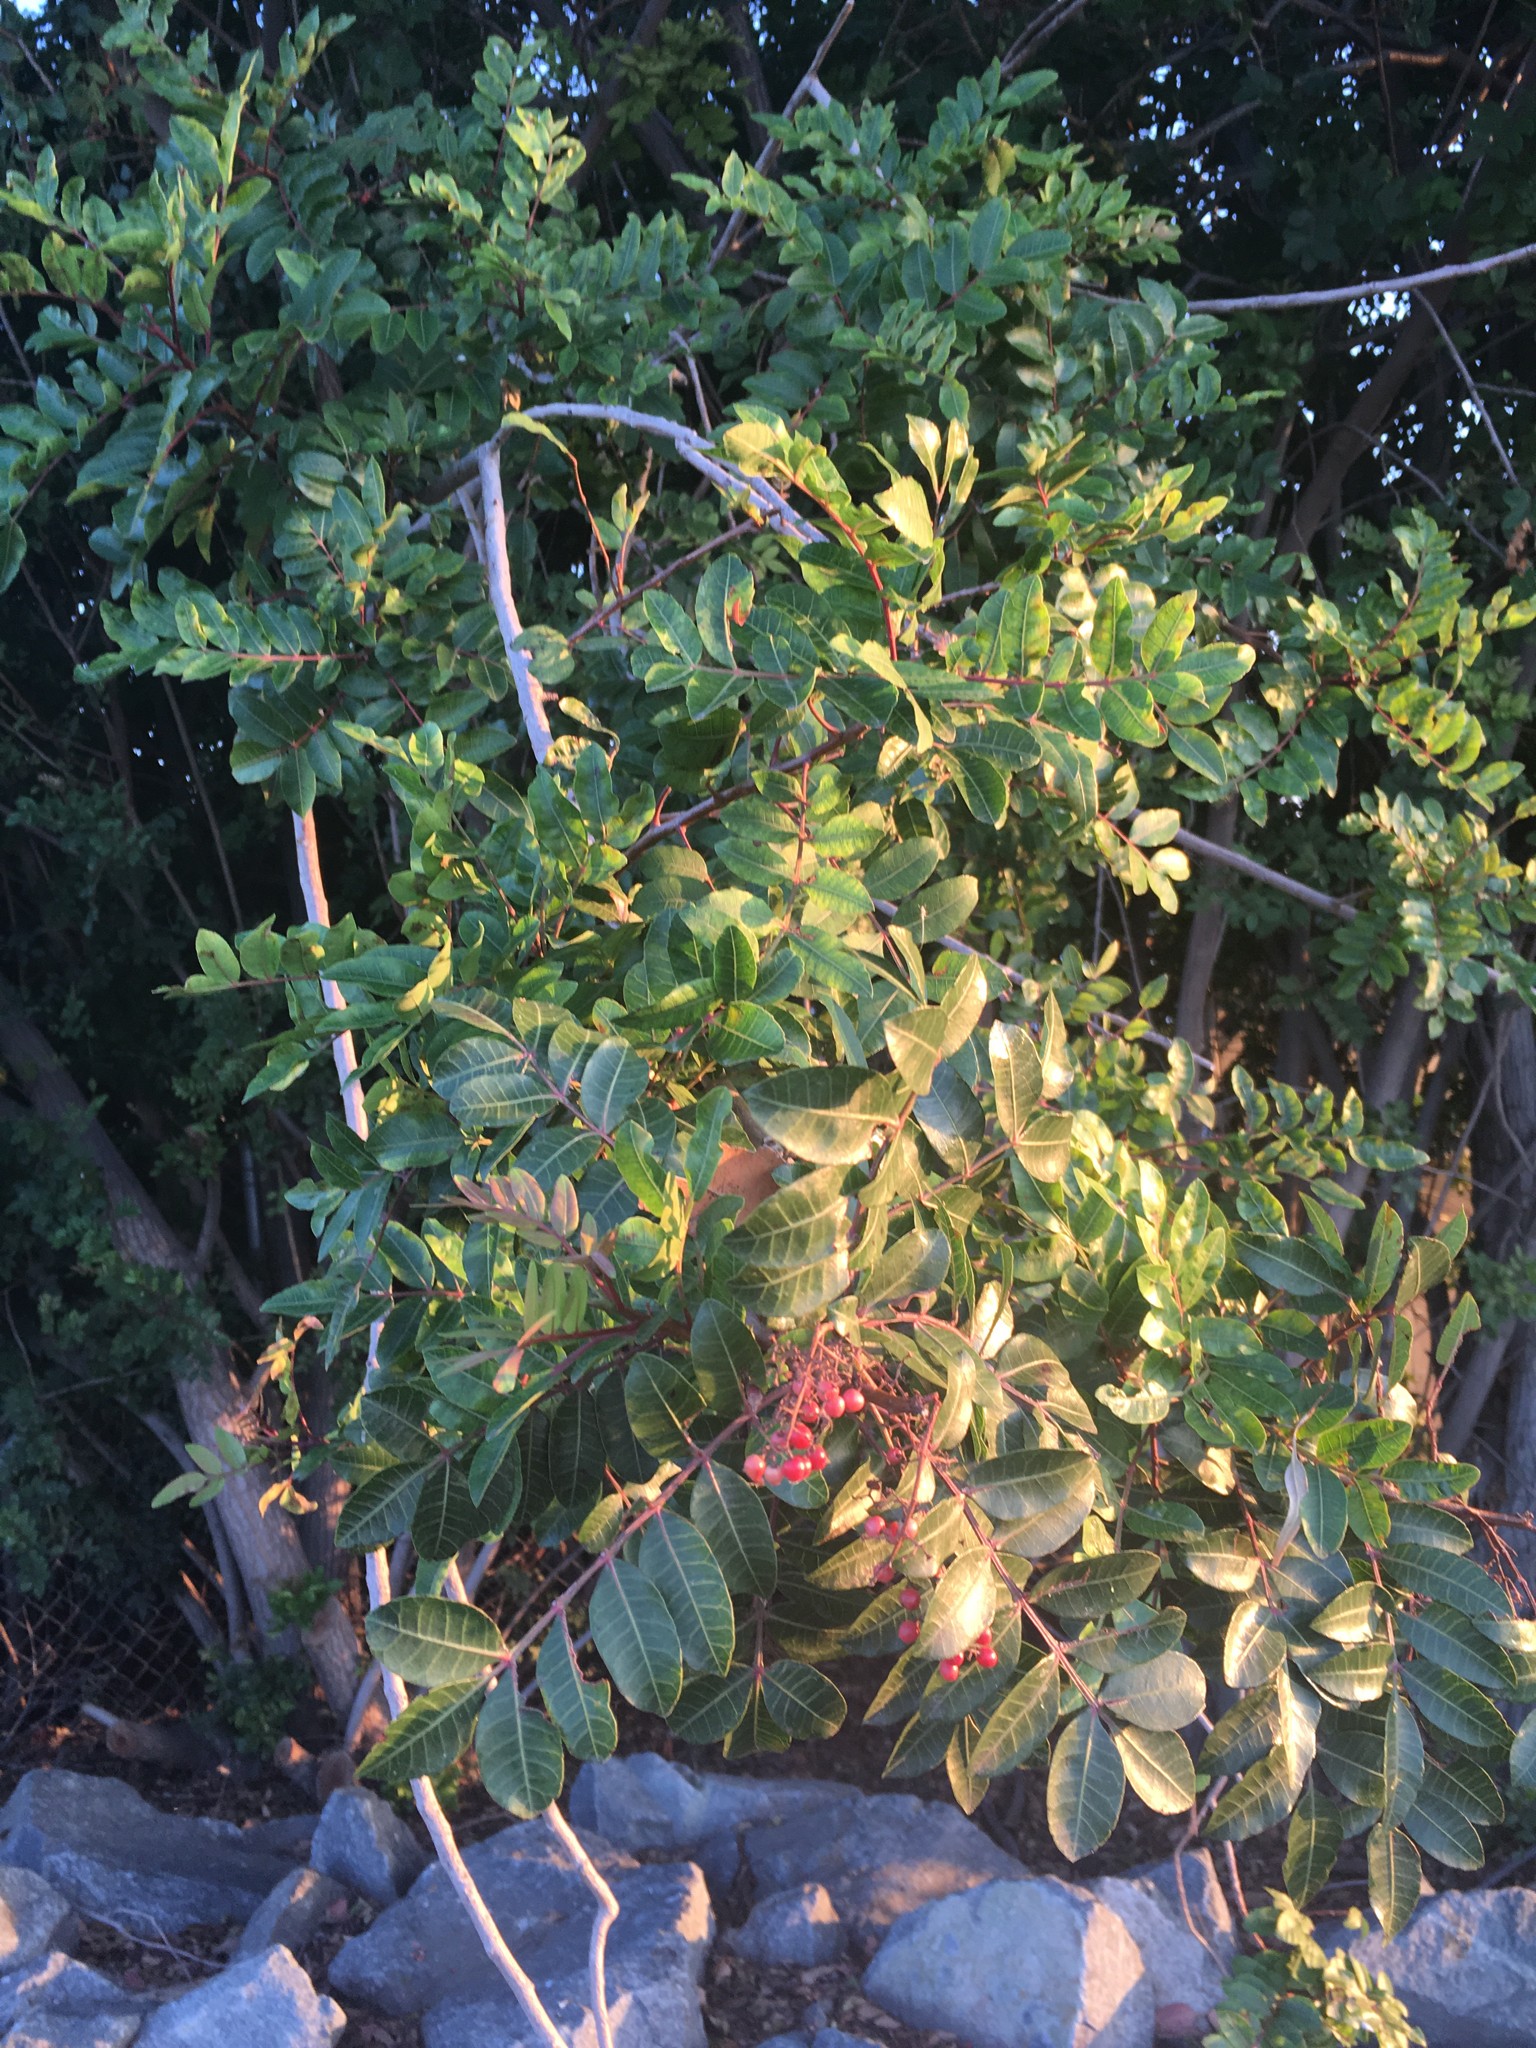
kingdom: Plantae
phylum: Tracheophyta
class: Magnoliopsida
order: Sapindales
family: Anacardiaceae
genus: Schinus
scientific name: Schinus terebinthifolia
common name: Brazilian peppertree
